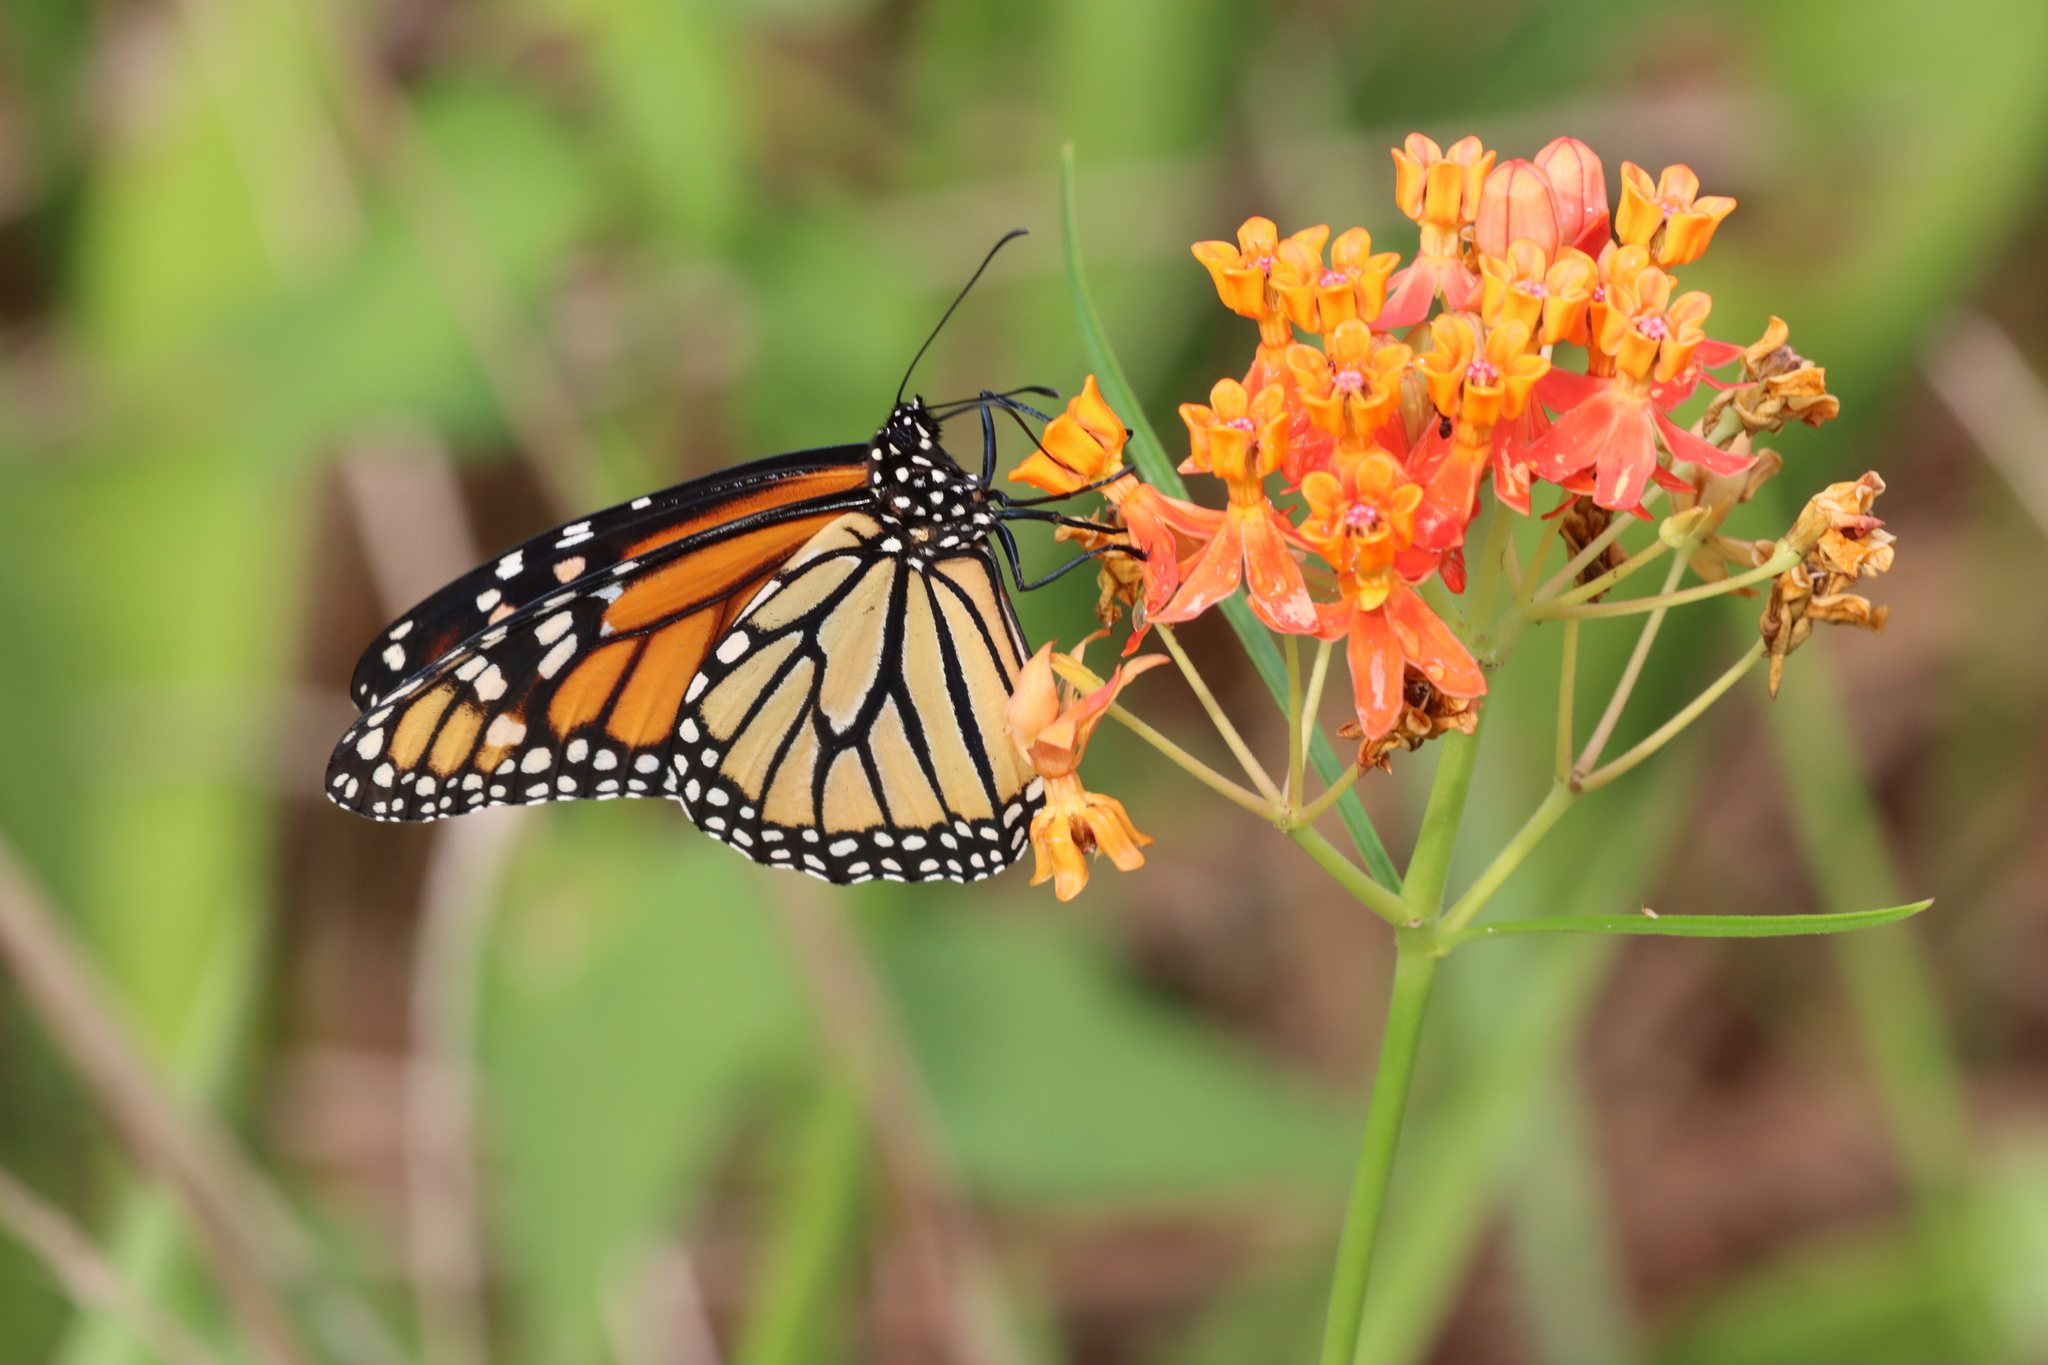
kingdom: Animalia
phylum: Arthropoda
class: Insecta
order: Lepidoptera
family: Nymphalidae
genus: Danaus
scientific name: Danaus plexippus
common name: Monarch
